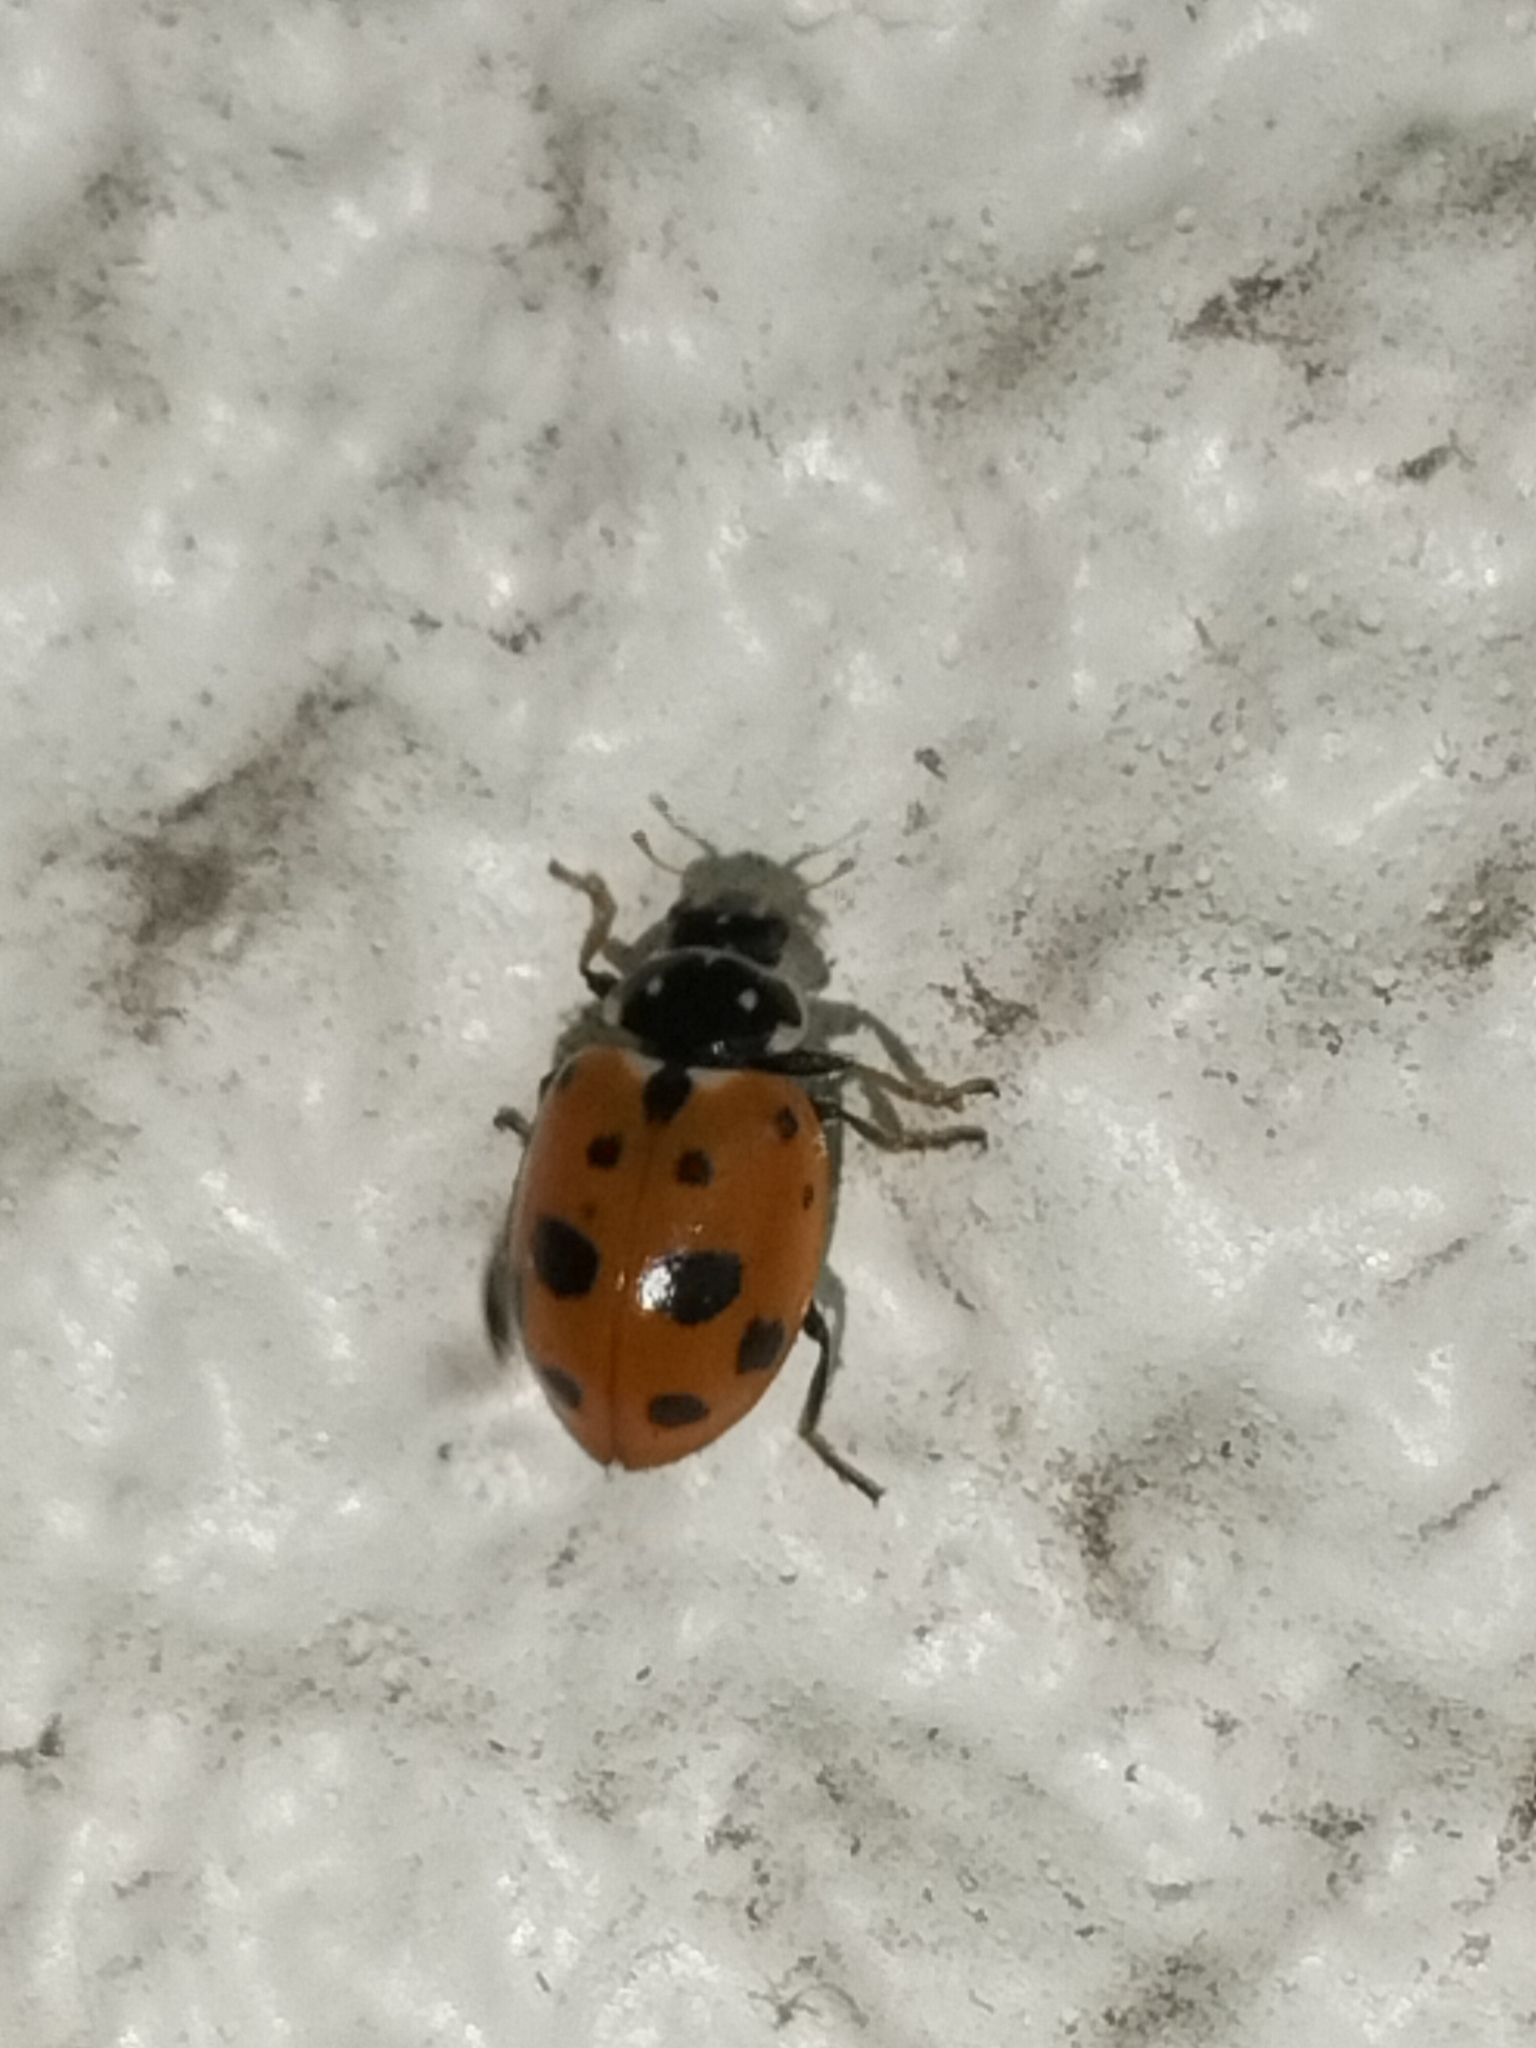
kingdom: Animalia
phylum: Arthropoda
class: Insecta
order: Coleoptera
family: Coccinellidae
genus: Hippodamia
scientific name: Hippodamia variegata
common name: Ladybird beetle
